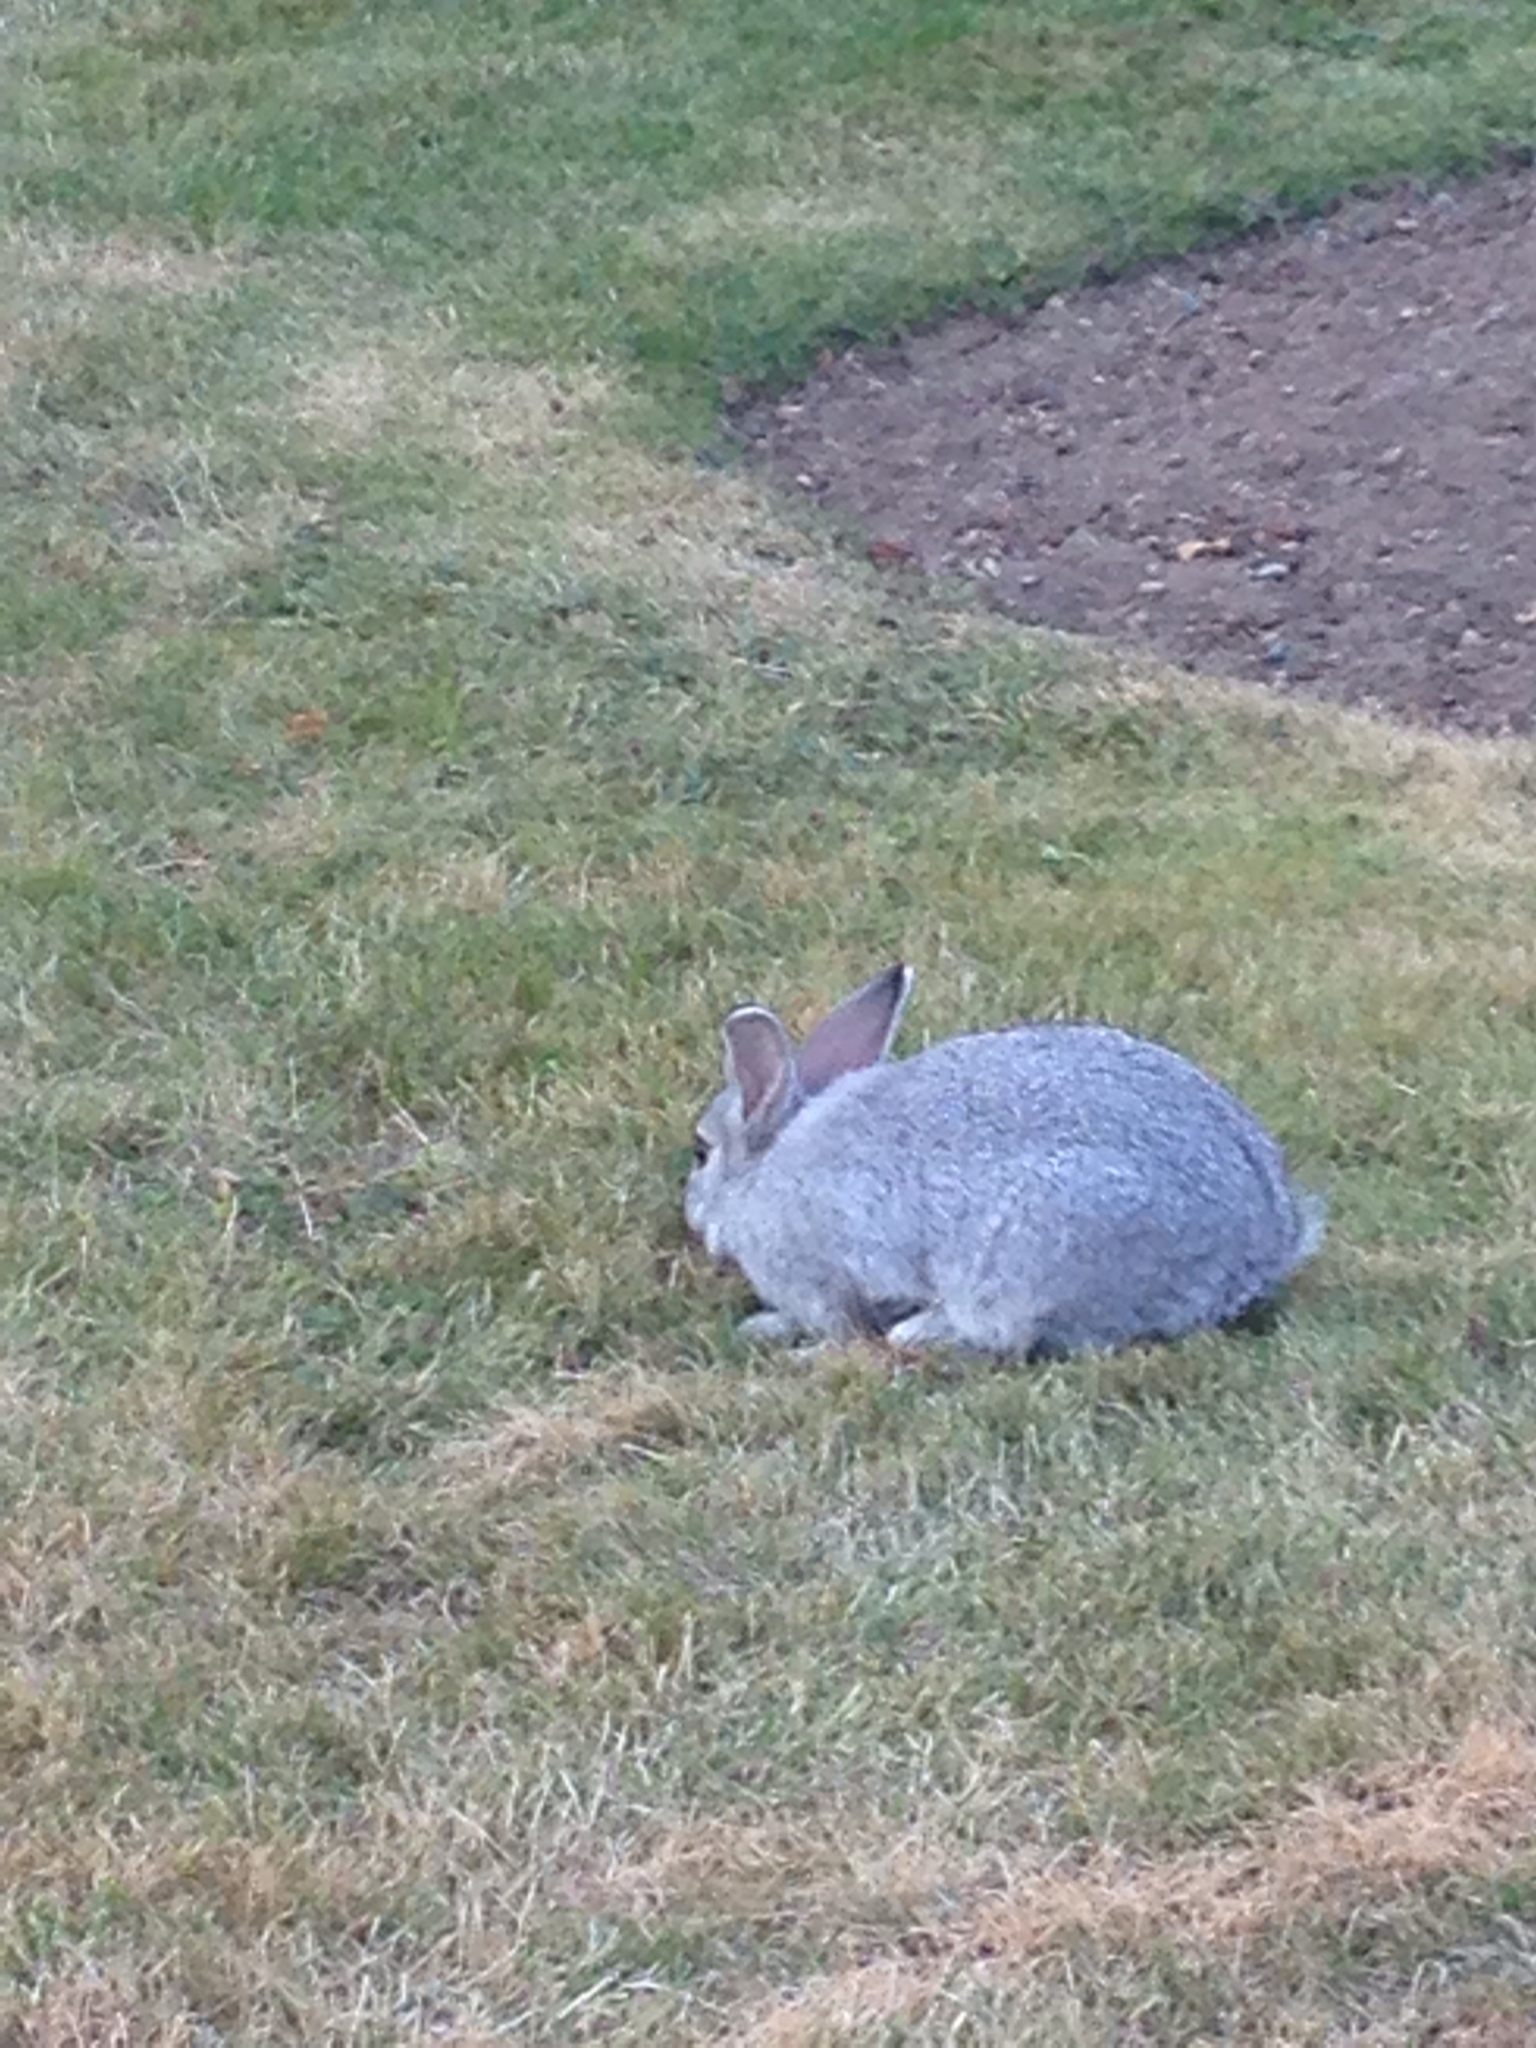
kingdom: Animalia
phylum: Chordata
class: Mammalia
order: Lagomorpha
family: Leporidae
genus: Oryctolagus
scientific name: Oryctolagus cuniculus
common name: European rabbit
